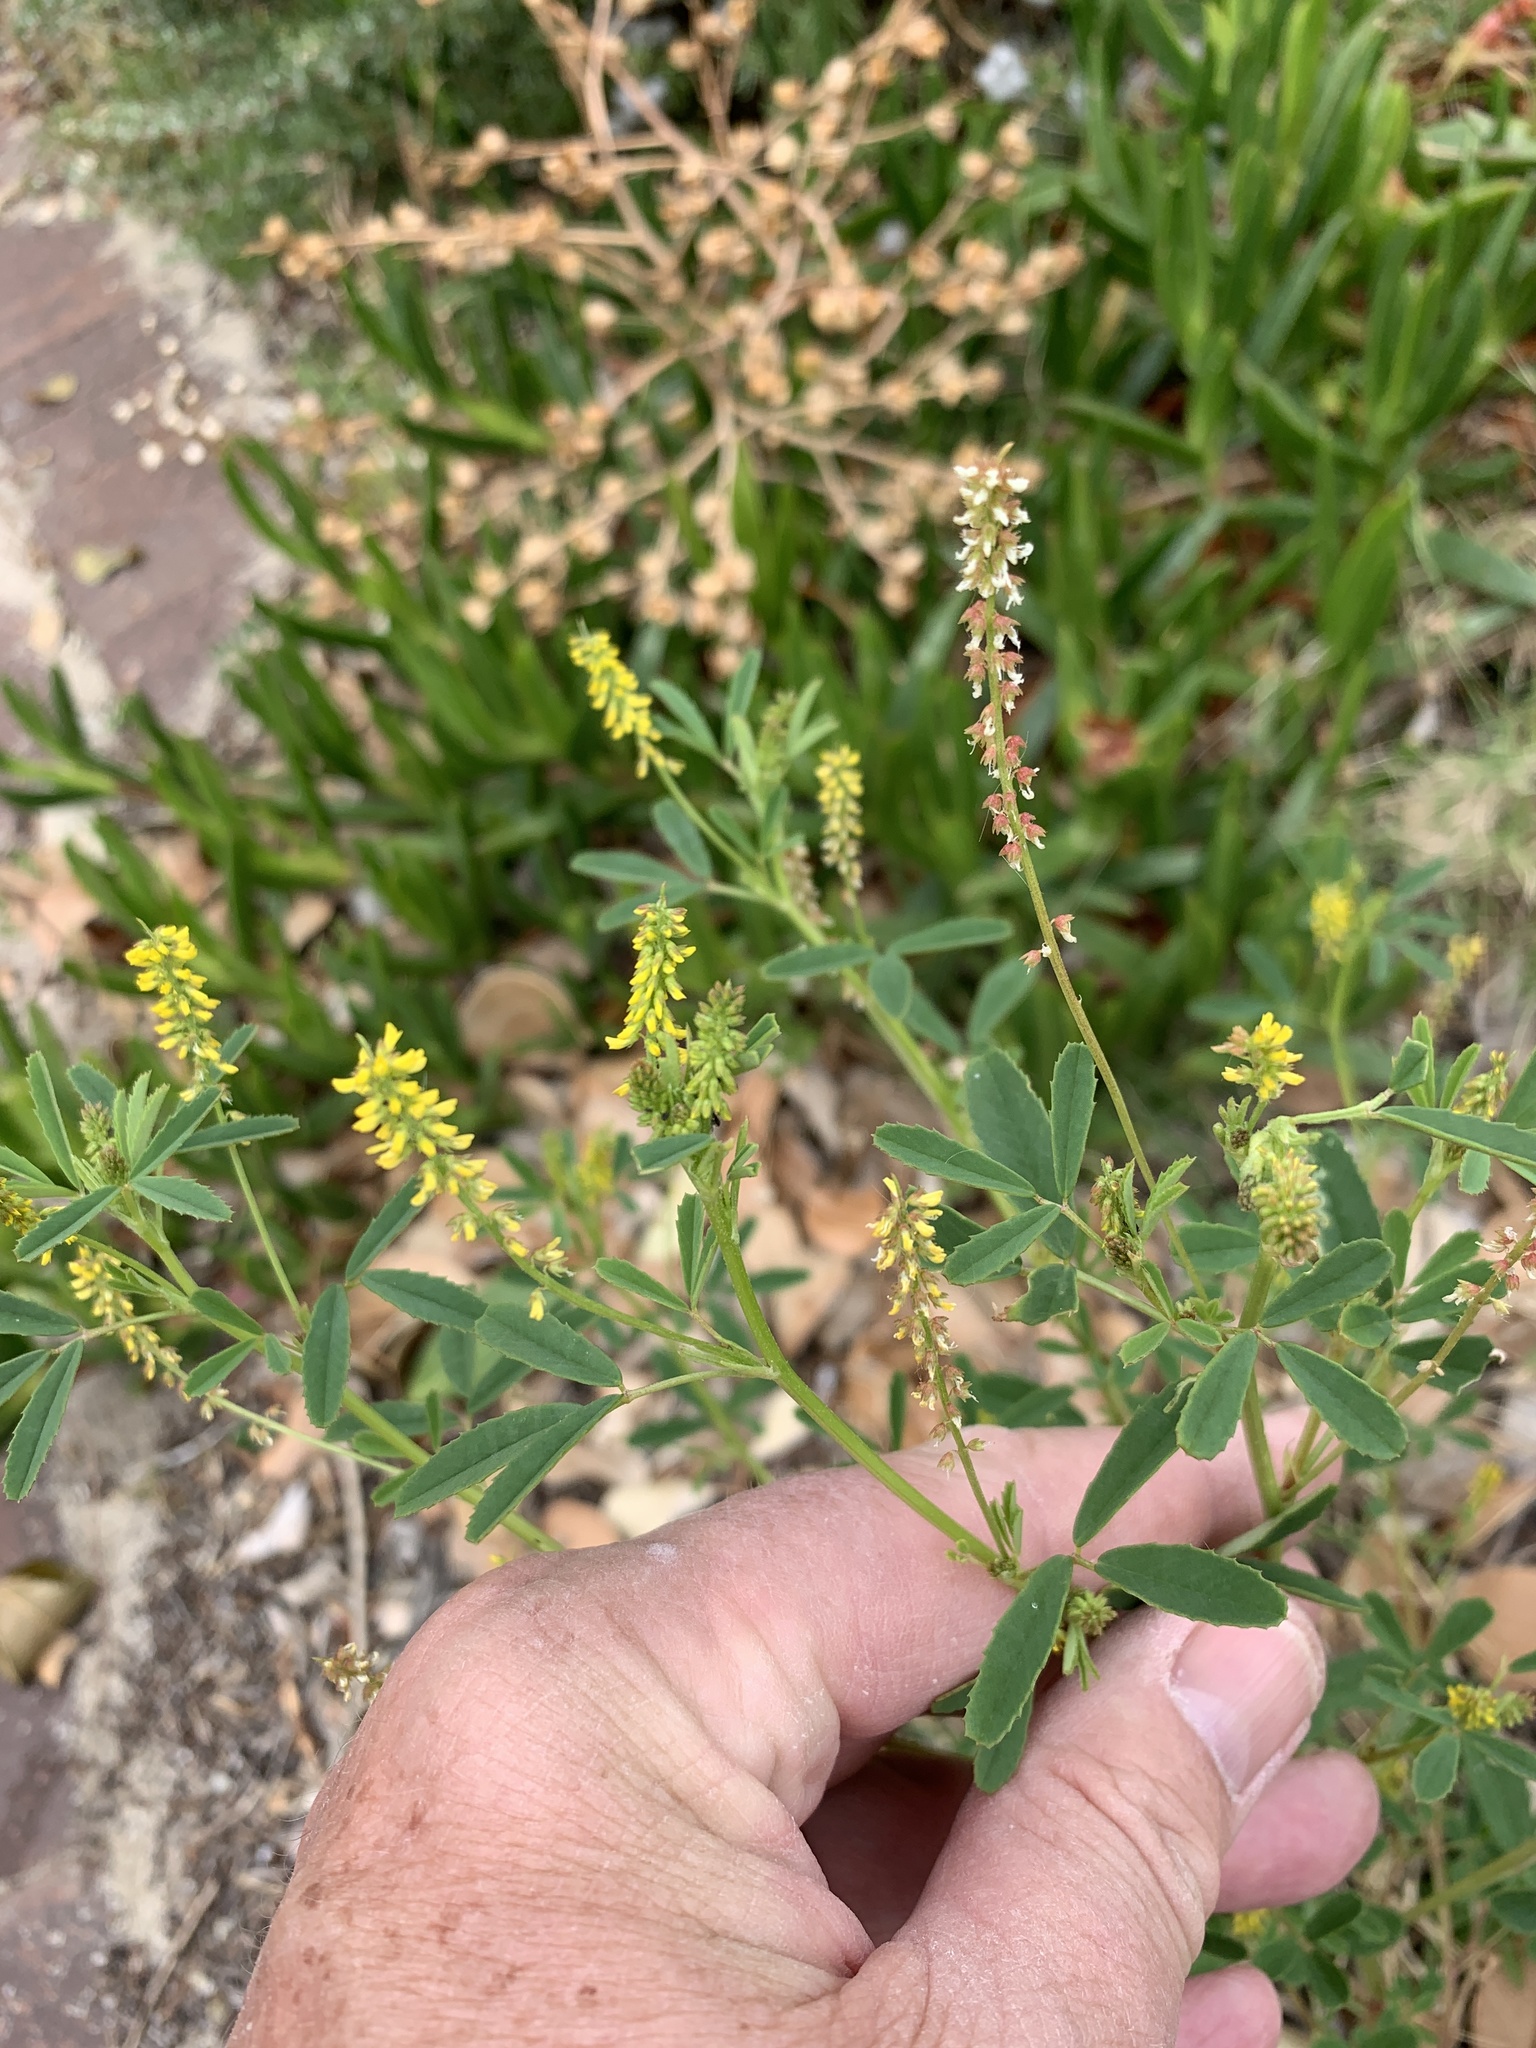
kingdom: Plantae
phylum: Tracheophyta
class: Magnoliopsida
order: Fabales
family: Fabaceae
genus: Melilotus
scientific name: Melilotus indicus
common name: Small melilot
